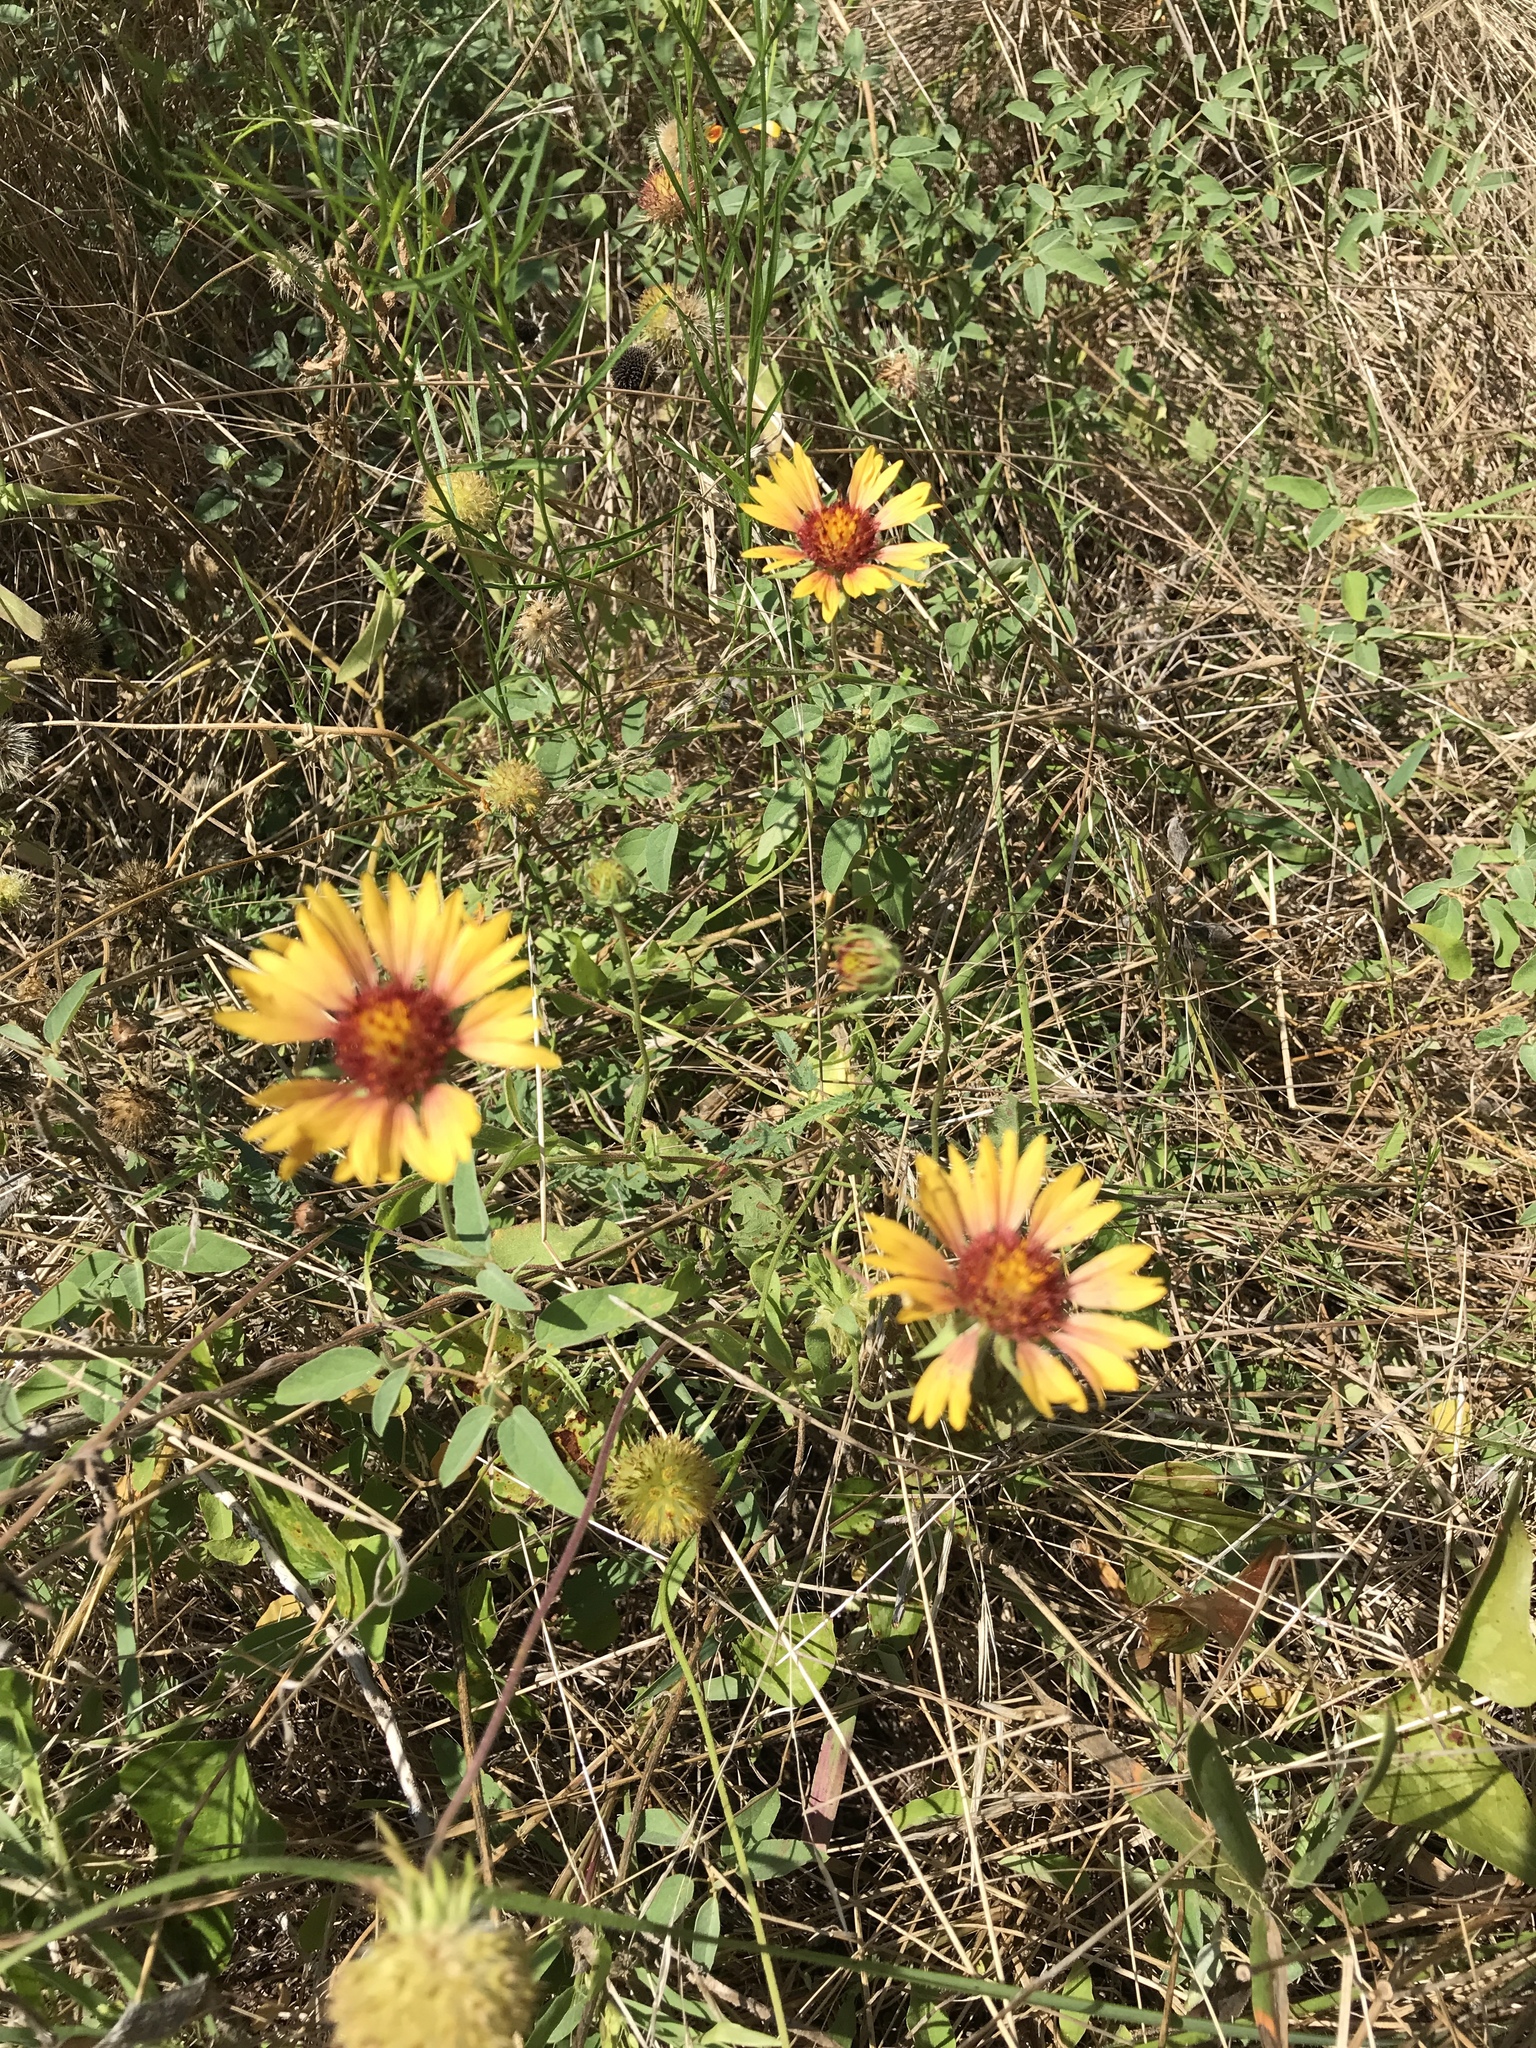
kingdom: Plantae
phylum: Tracheophyta
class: Magnoliopsida
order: Asterales
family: Asteraceae
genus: Gaillardia
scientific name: Gaillardia pulchella
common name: Firewheel
